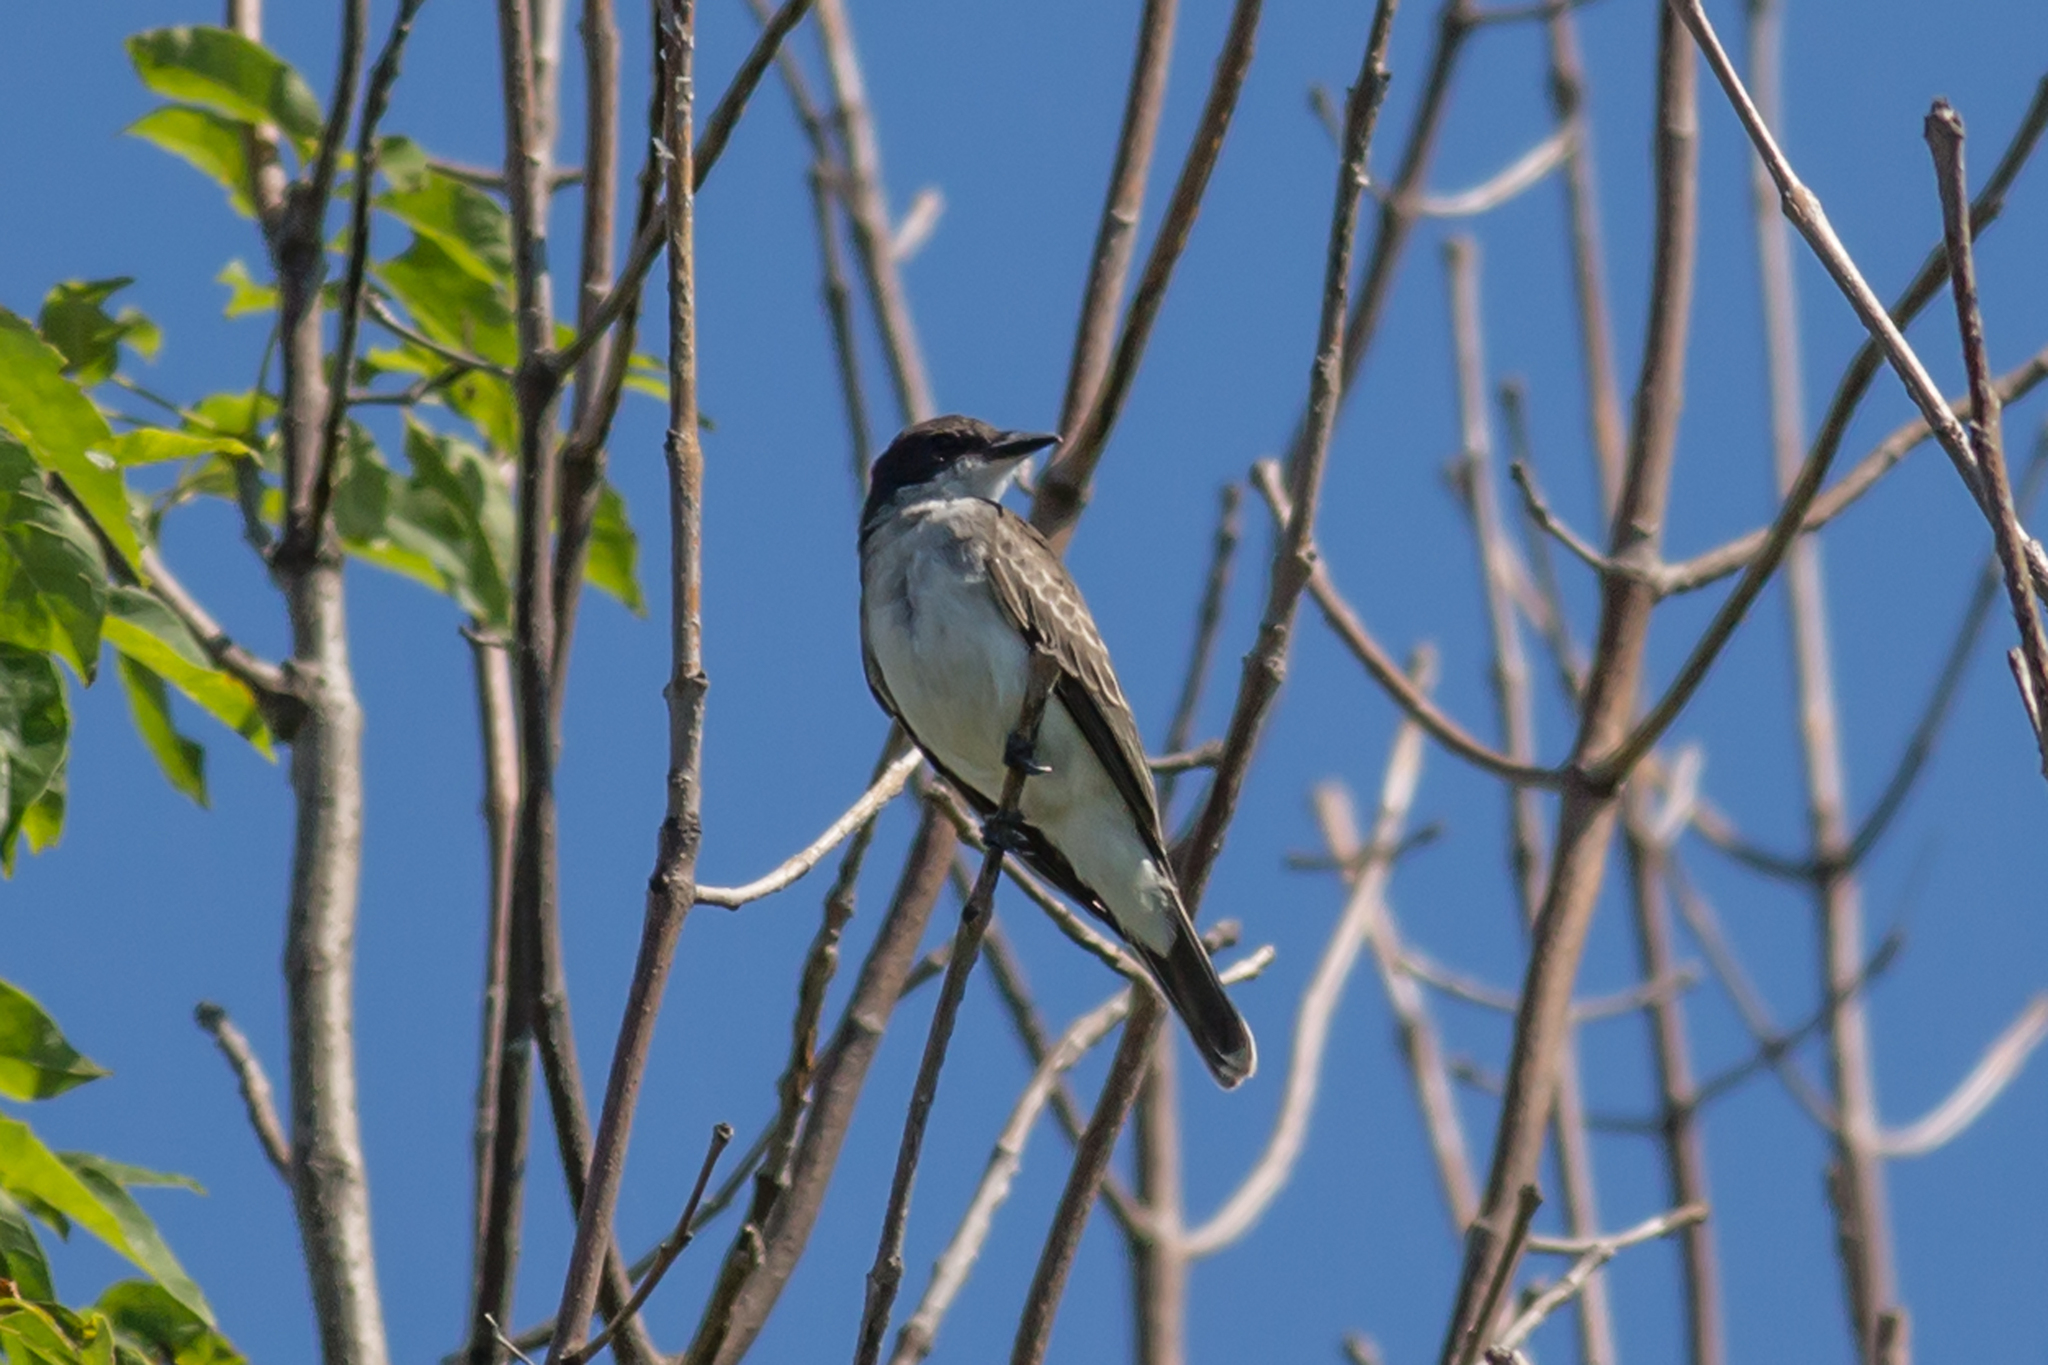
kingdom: Animalia
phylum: Chordata
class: Aves
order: Passeriformes
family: Tyrannidae
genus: Tyrannus
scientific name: Tyrannus tyrannus
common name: Eastern kingbird
